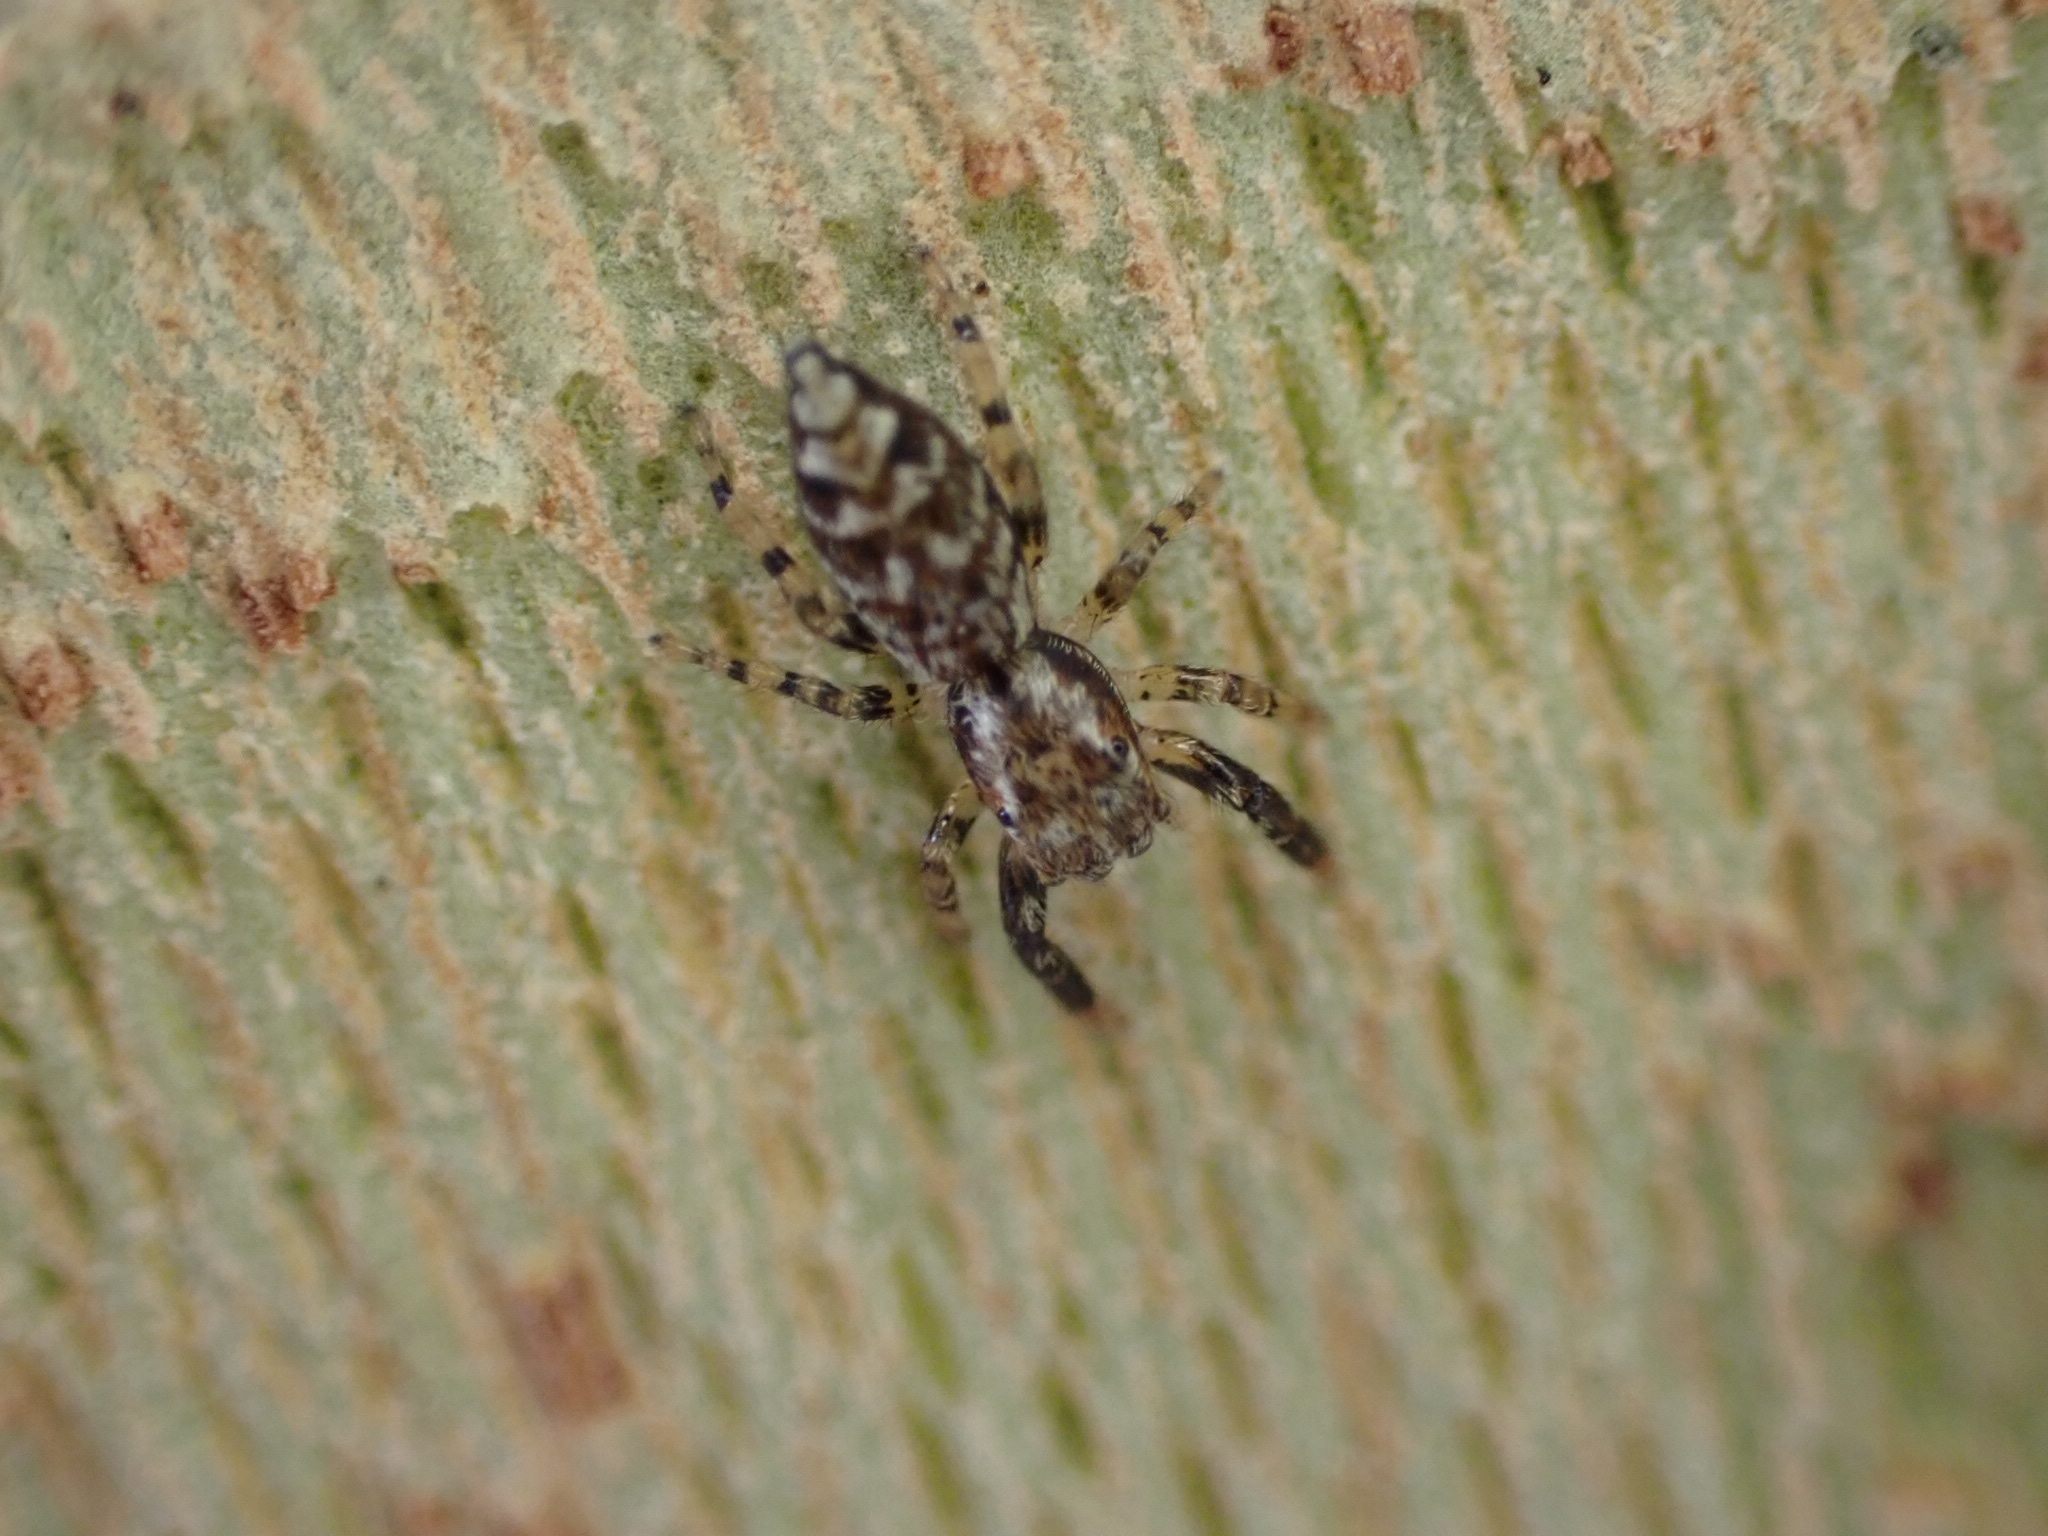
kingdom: Animalia
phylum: Arthropoda
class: Arachnida
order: Araneae
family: Salticidae
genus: Marpissa
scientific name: Marpissa muscosa
